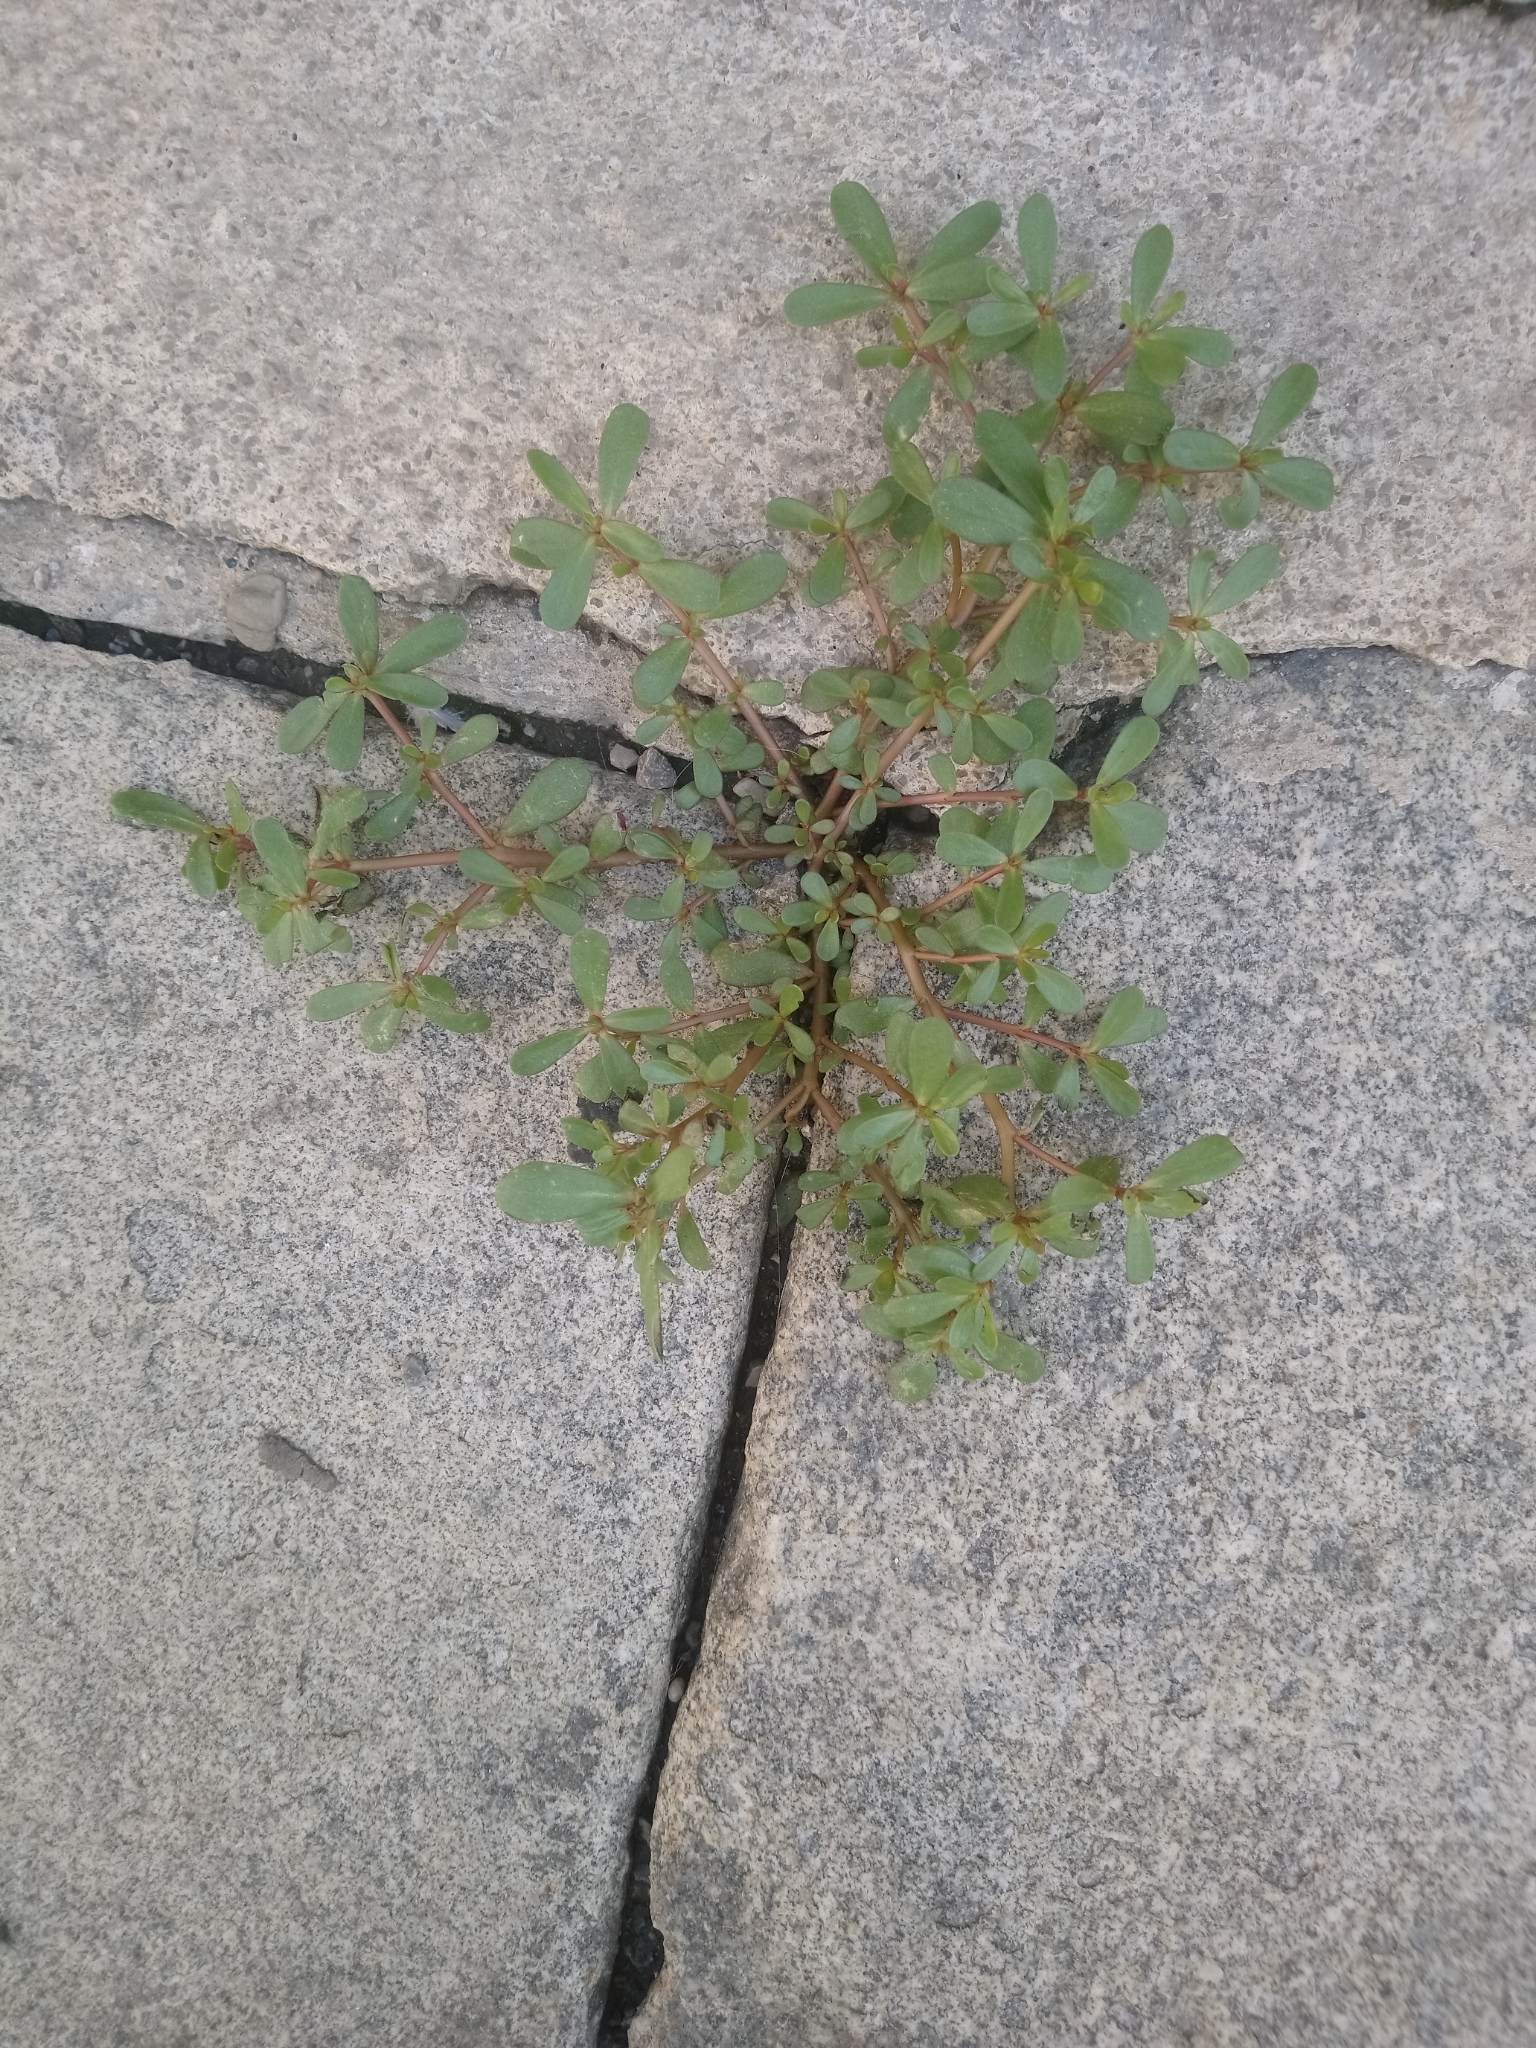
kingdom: Plantae
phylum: Tracheophyta
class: Magnoliopsida
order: Caryophyllales
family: Portulacaceae
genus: Portulaca
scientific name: Portulaca oleracea
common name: Common purslane
